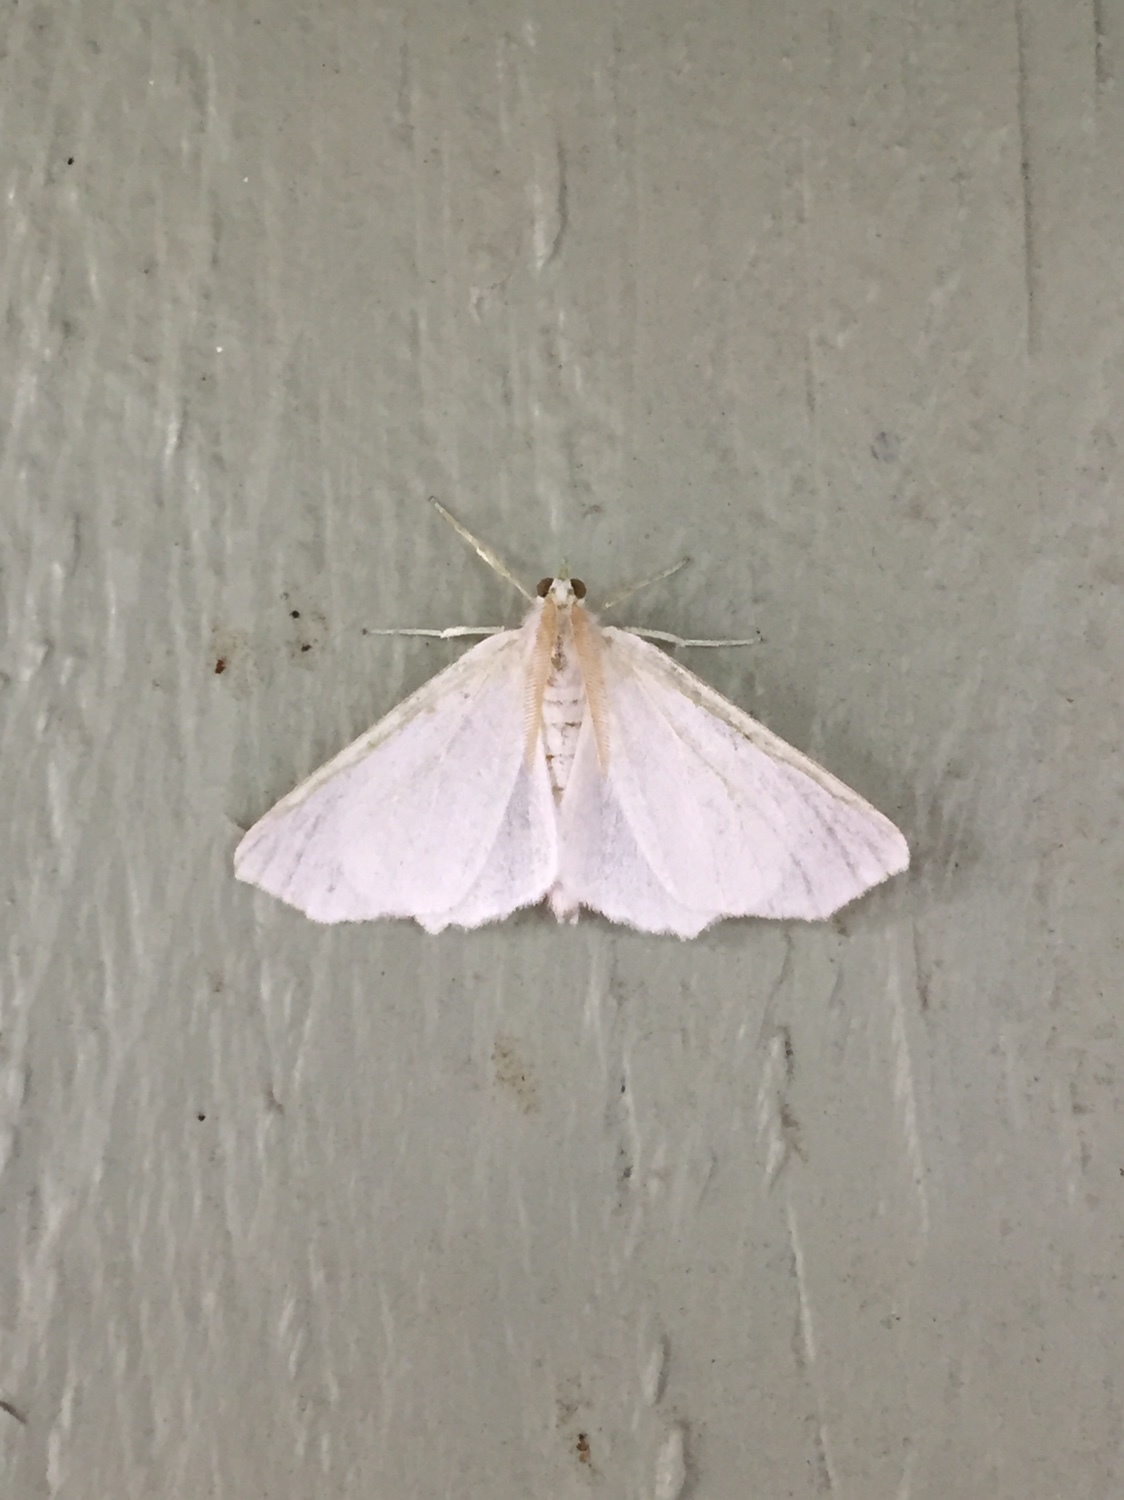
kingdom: Animalia
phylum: Arthropoda
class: Insecta
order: Lepidoptera
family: Geometridae
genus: Ennomos
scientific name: Ennomos subsignaria
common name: Elm spanworm
